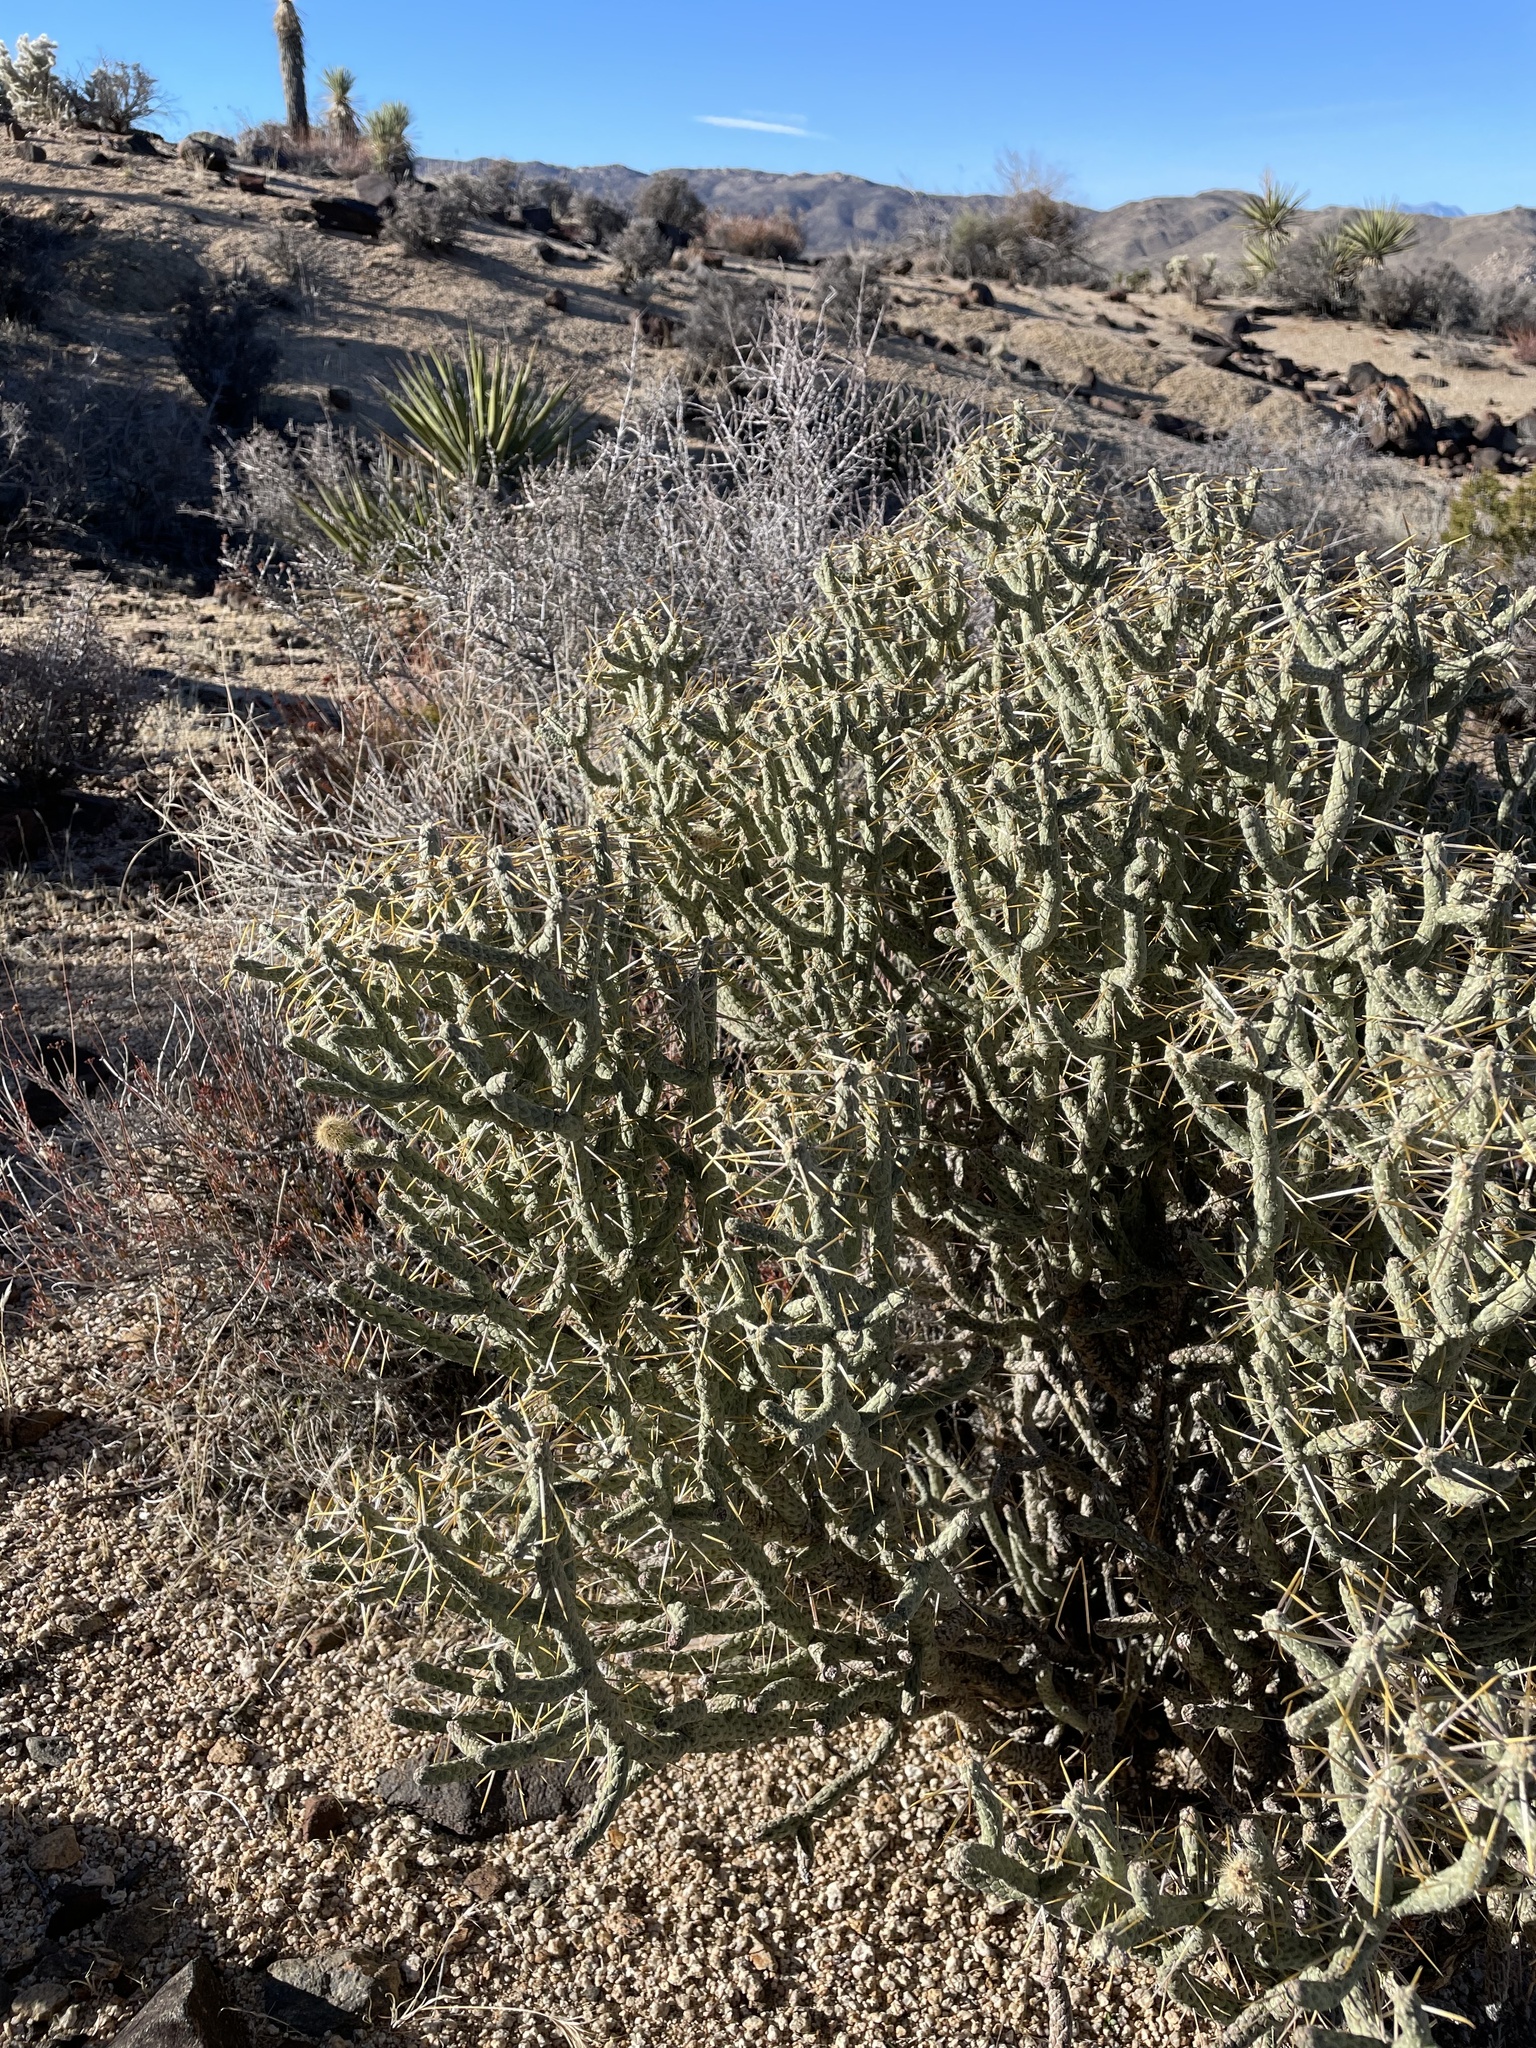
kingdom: Plantae
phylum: Tracheophyta
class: Magnoliopsida
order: Caryophyllales
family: Cactaceae
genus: Cylindropuntia
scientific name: Cylindropuntia ramosissima
